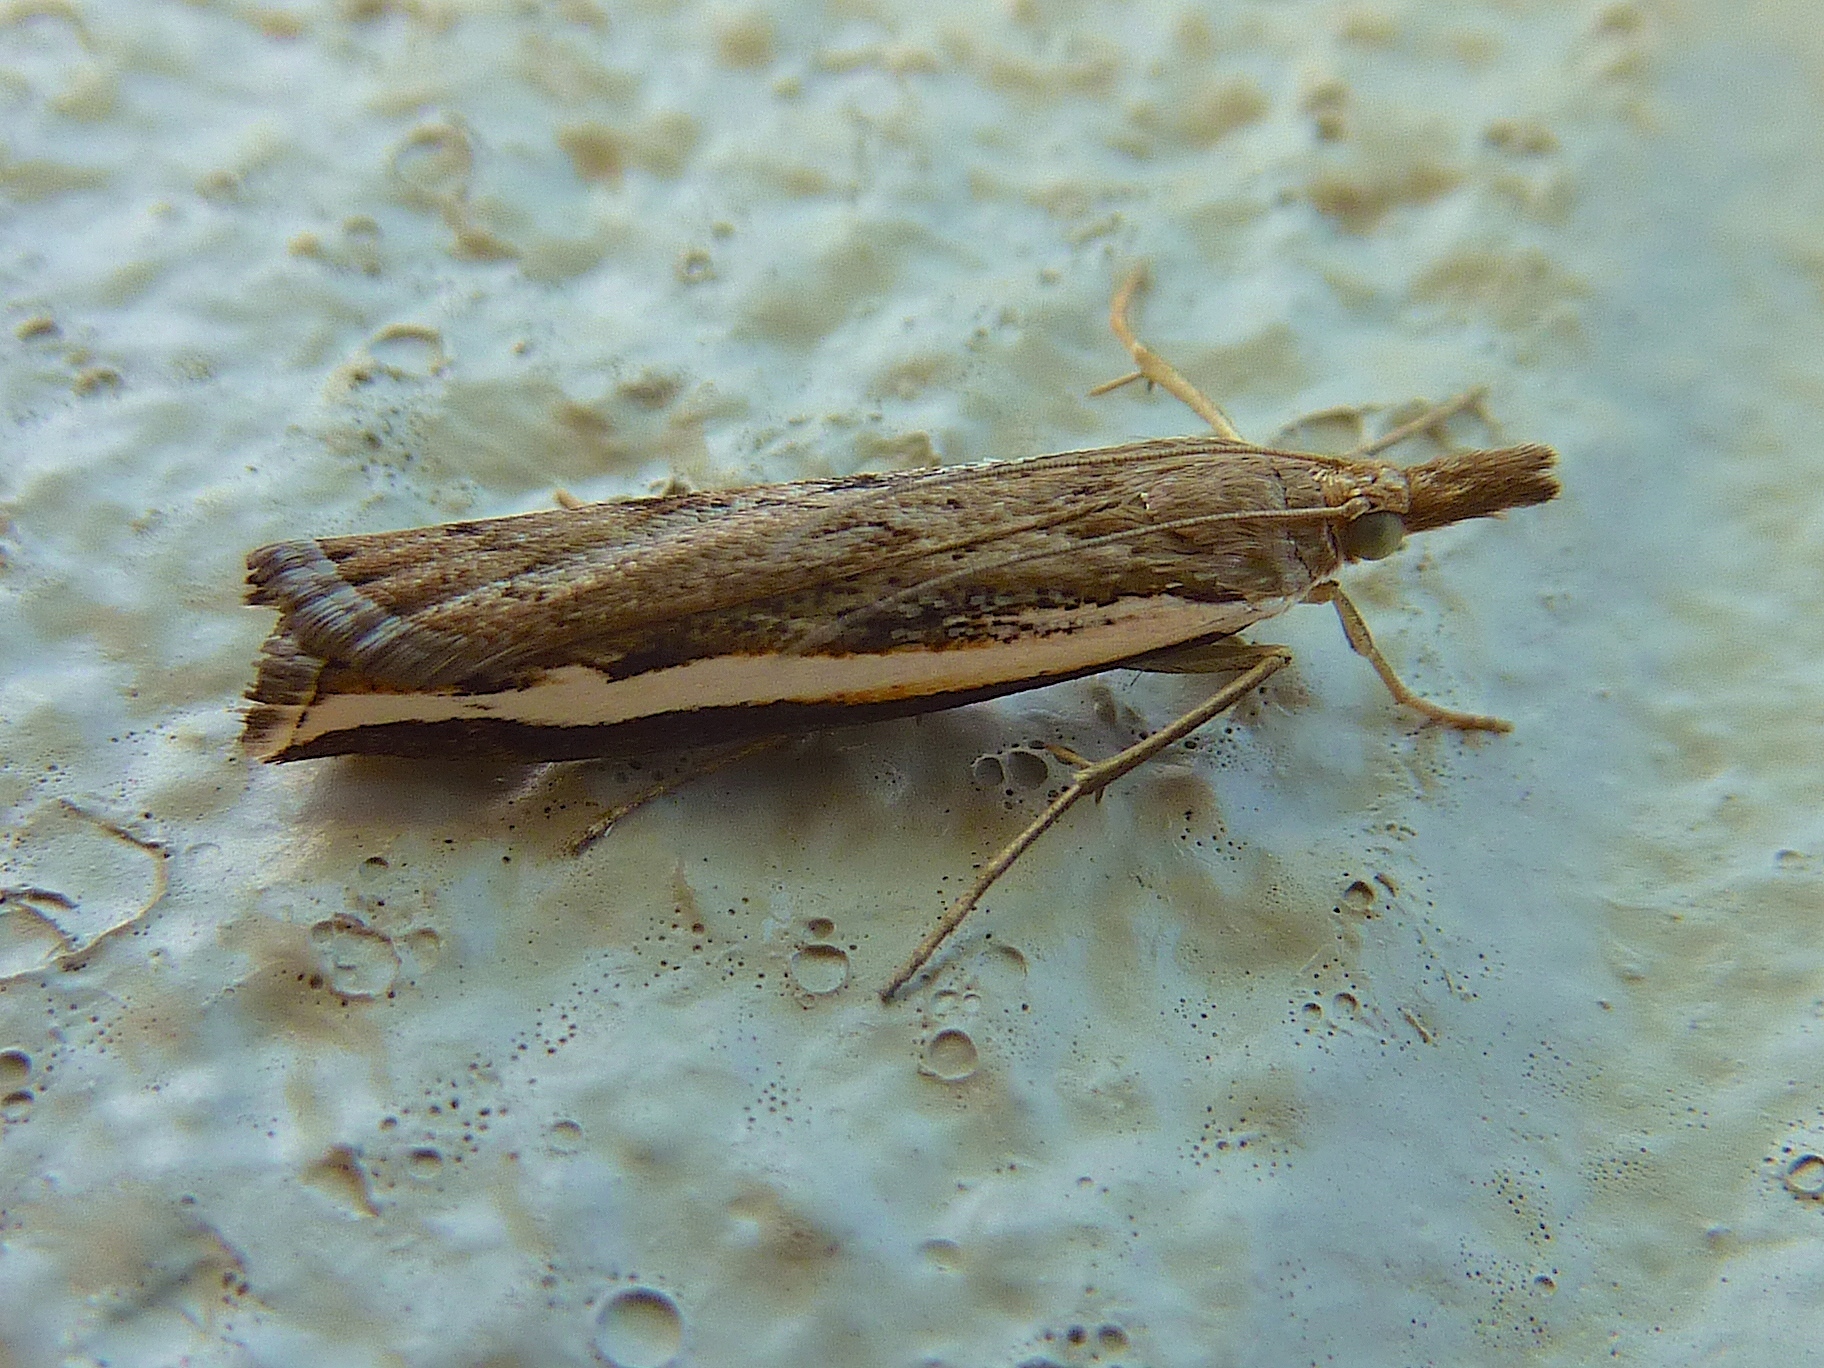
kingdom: Animalia
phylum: Arthropoda
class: Insecta
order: Lepidoptera
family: Crambidae
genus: Orocrambus
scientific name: Orocrambus flexuosellus
